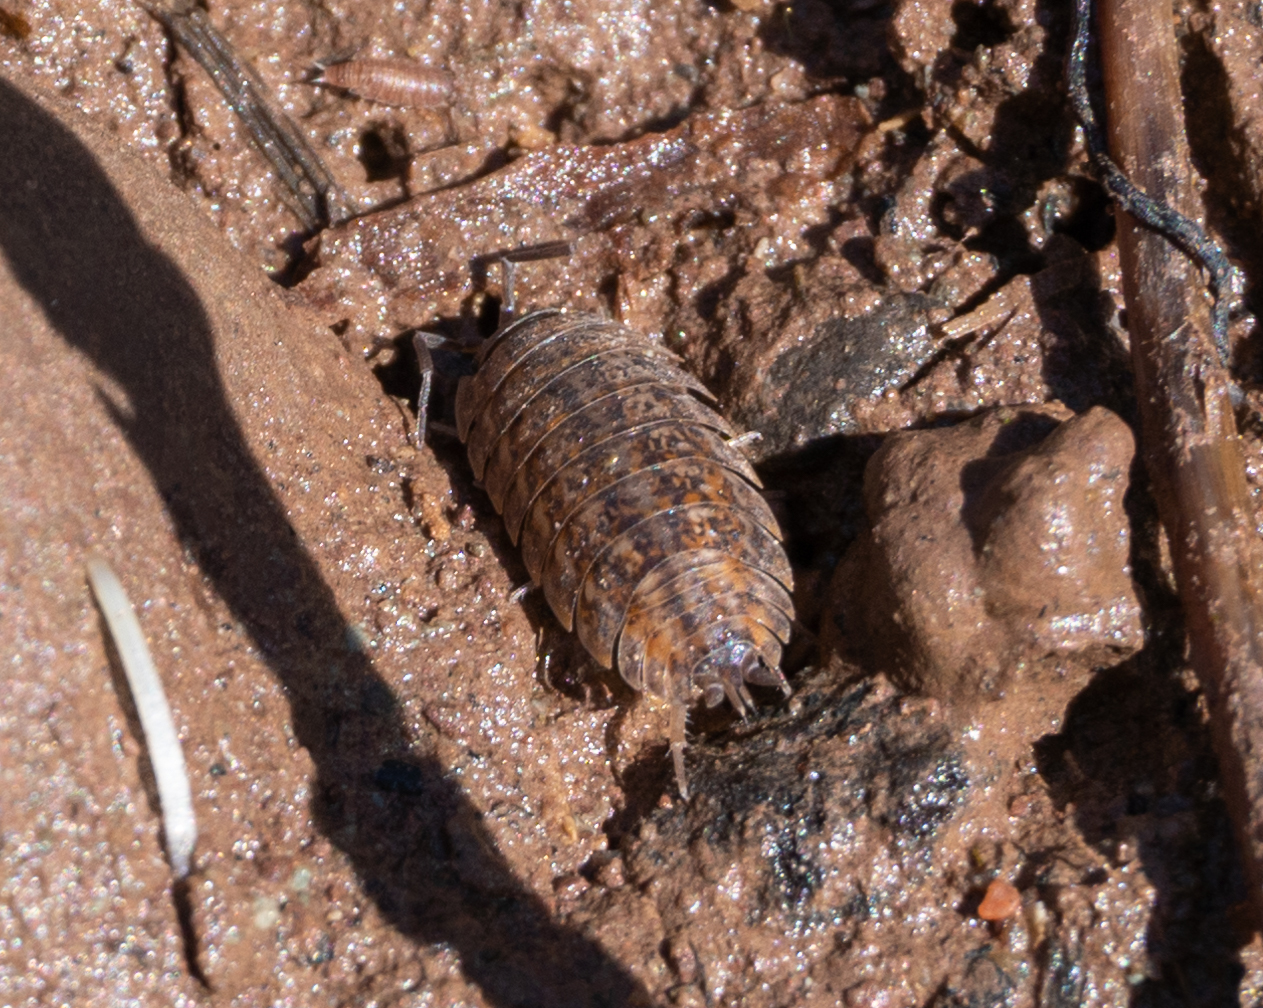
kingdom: Animalia
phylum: Arthropoda
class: Malacostraca
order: Isopoda
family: Trachelipodidae
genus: Trachelipus
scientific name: Trachelipus rathkii
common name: Isopod
